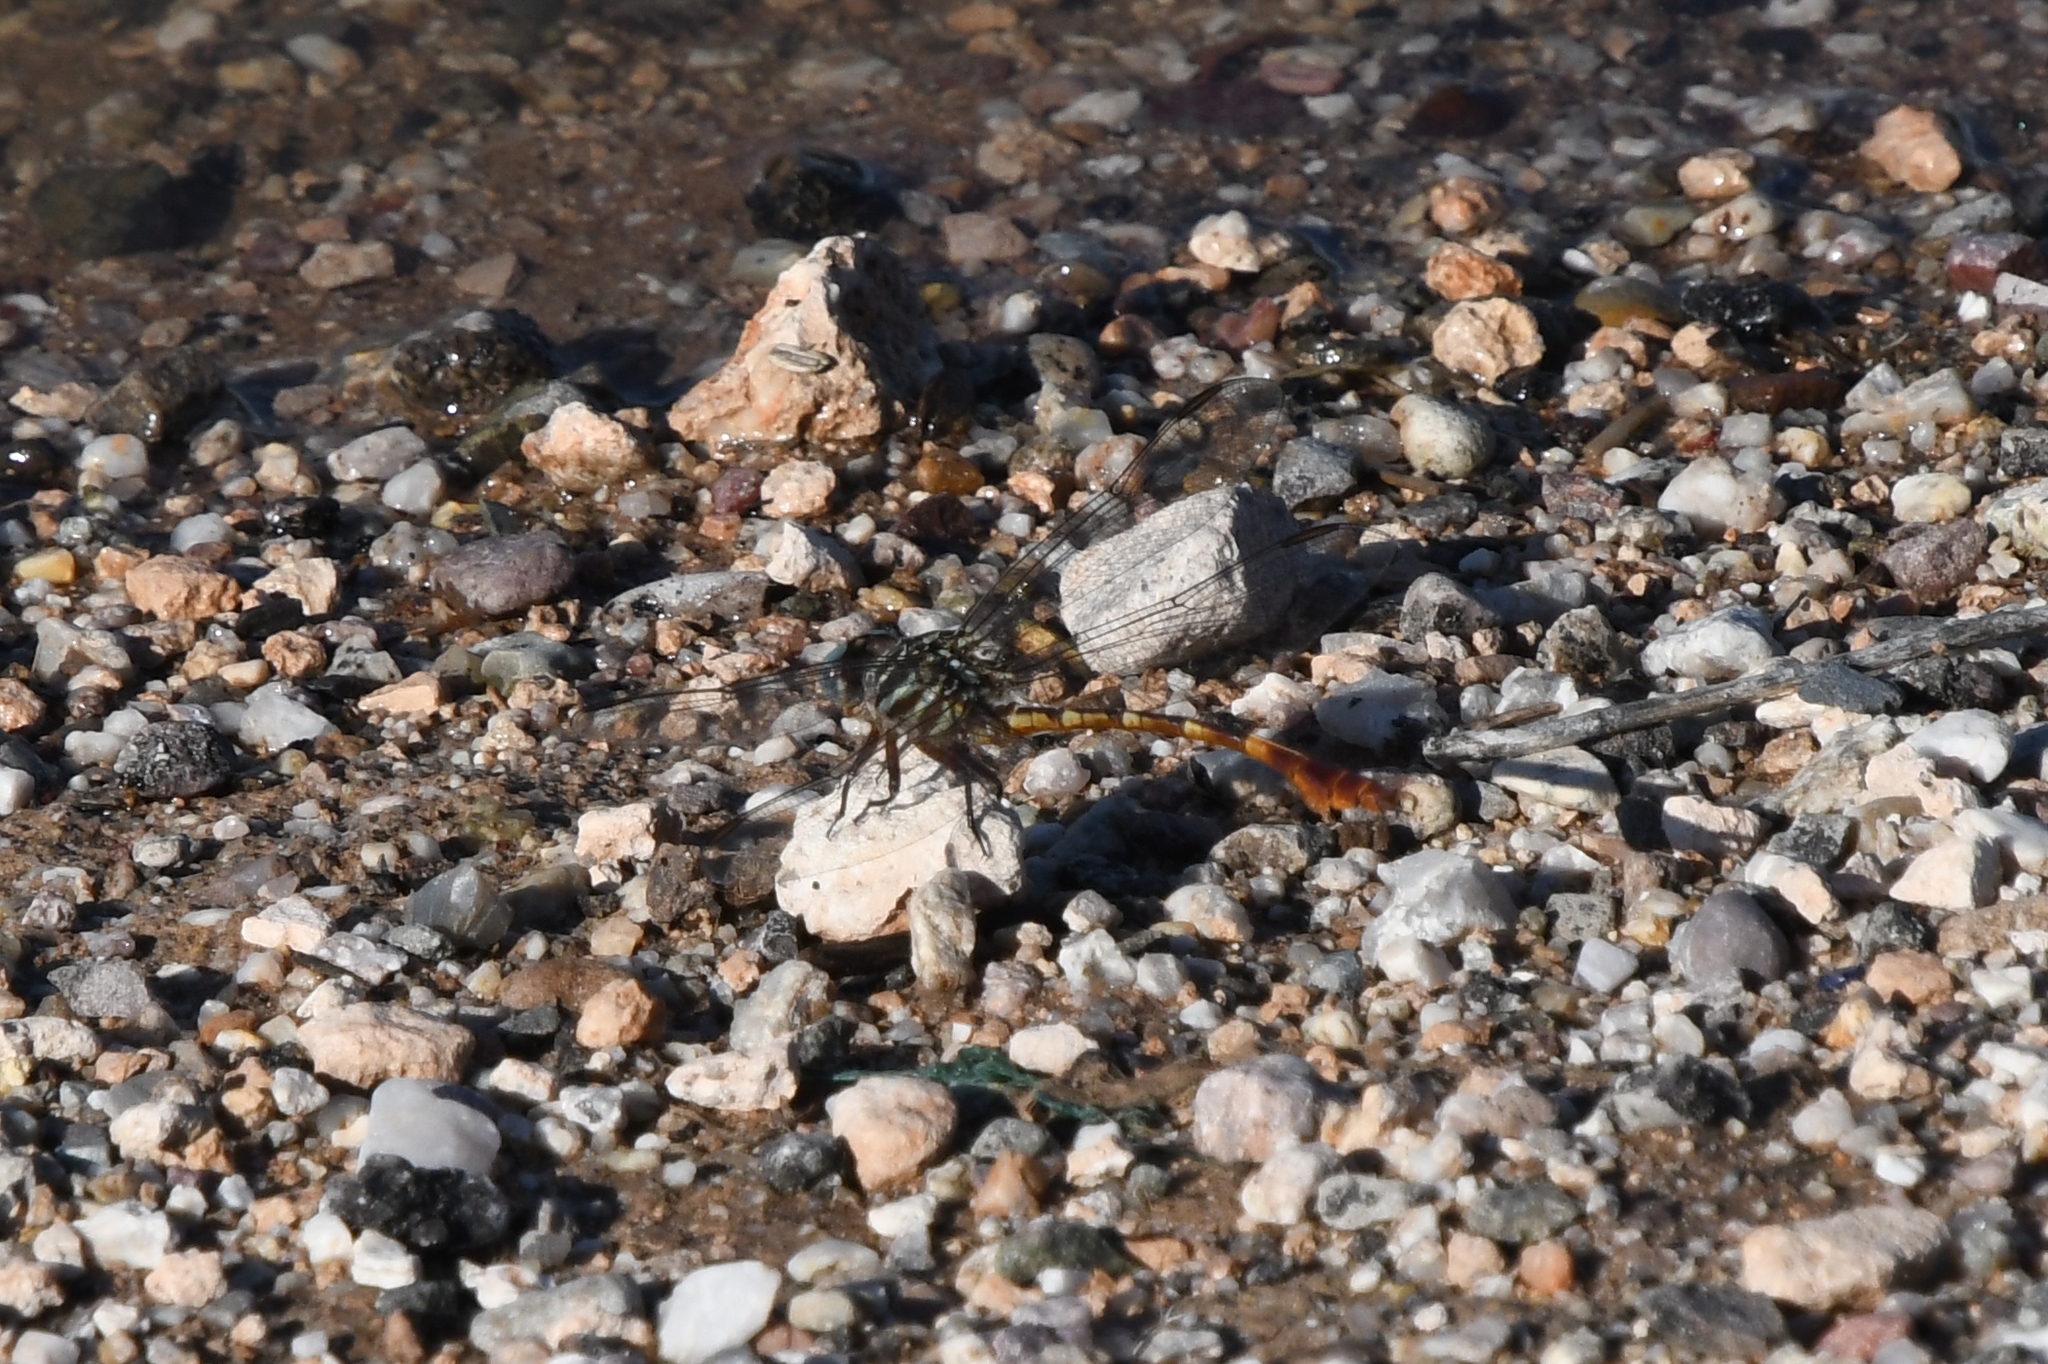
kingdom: Animalia
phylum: Arthropoda
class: Insecta
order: Odonata
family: Gomphidae
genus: Aphylla
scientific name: Aphylla protracta
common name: Narrow-striped forceptail
